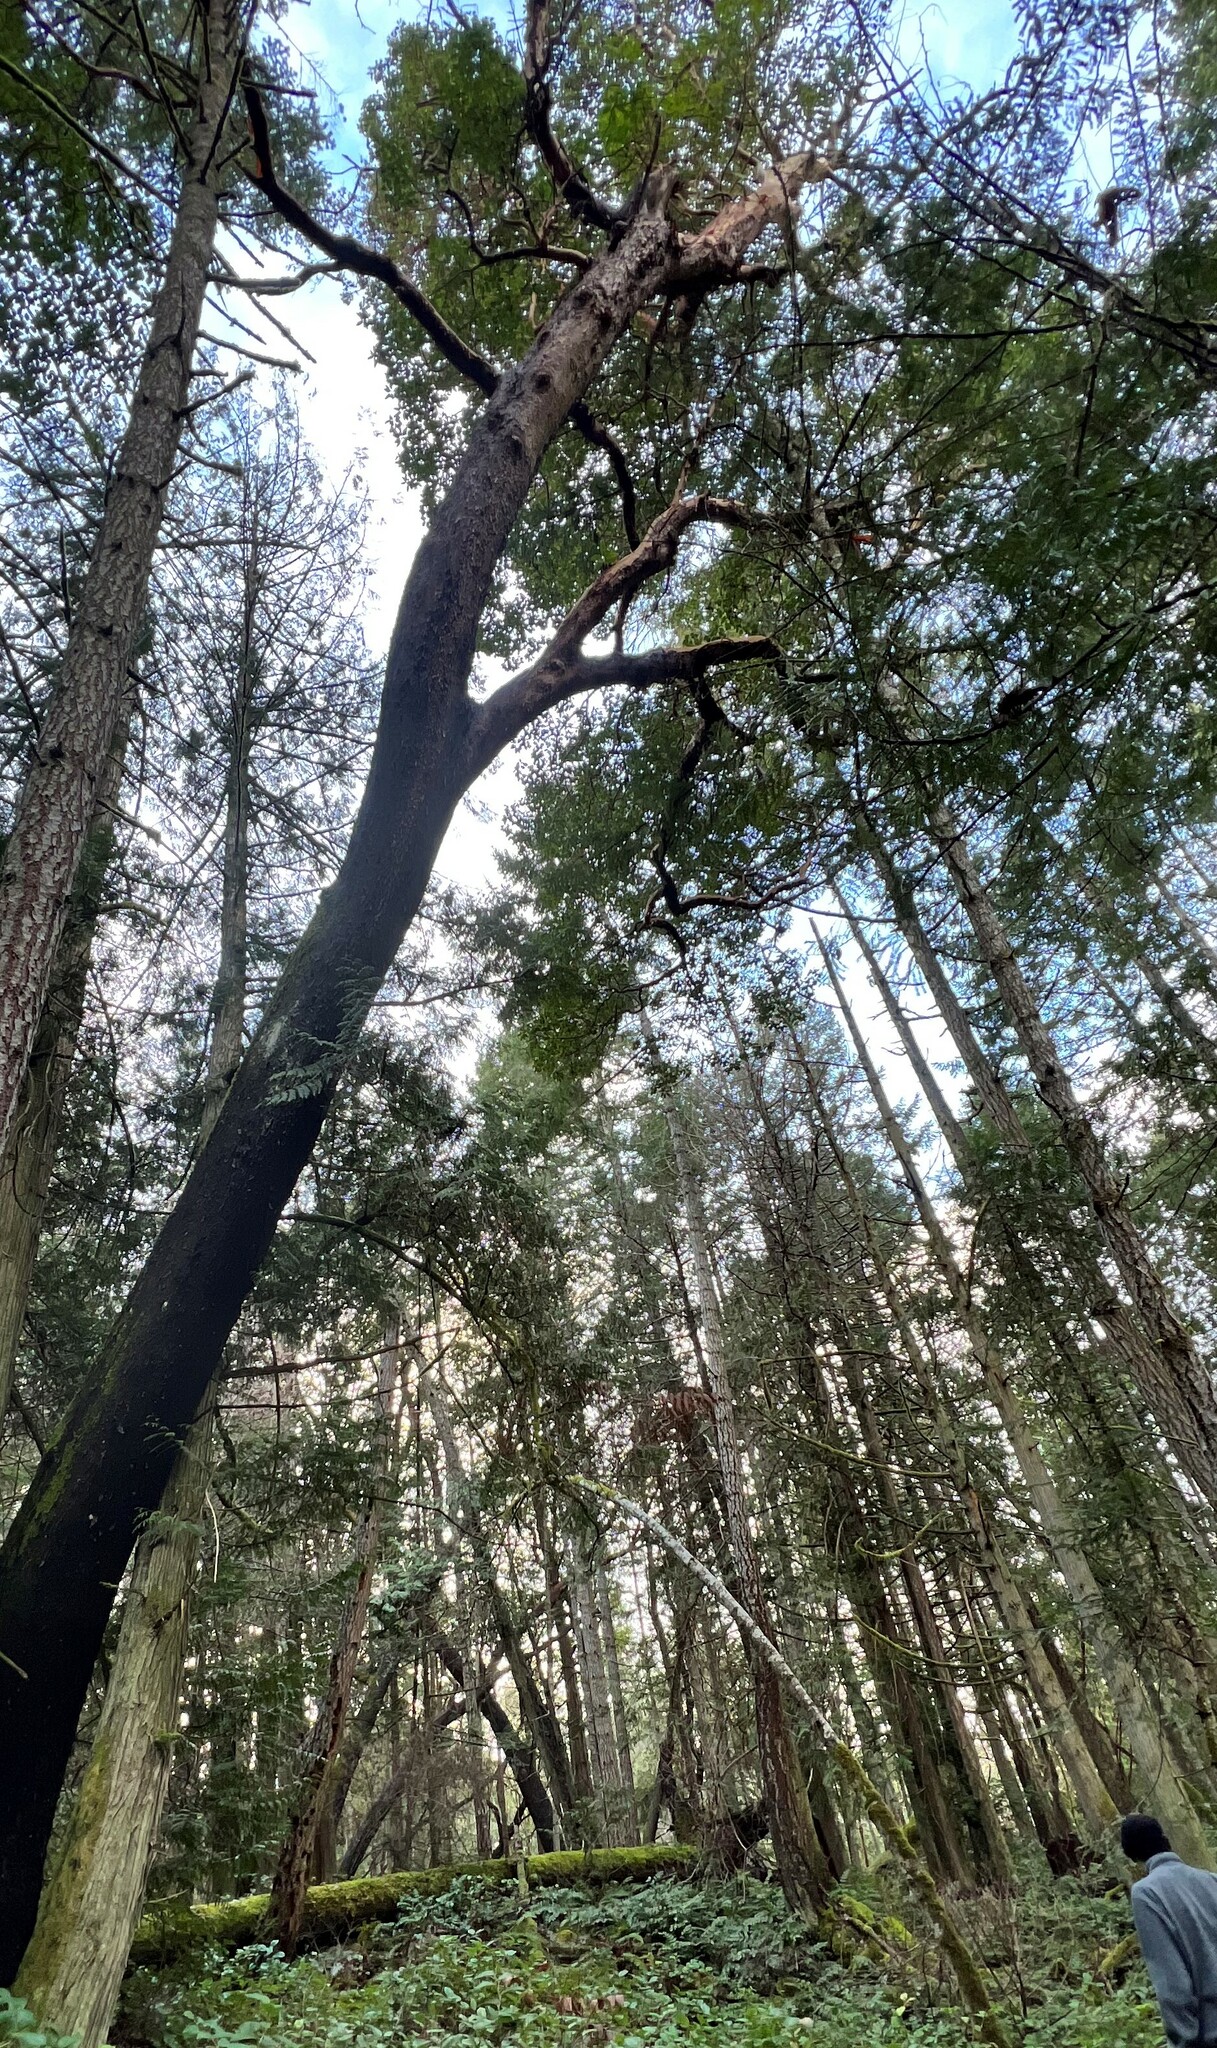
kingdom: Plantae
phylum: Tracheophyta
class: Magnoliopsida
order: Ericales
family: Ericaceae
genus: Arbutus
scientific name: Arbutus menziesii
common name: Pacific madrone
